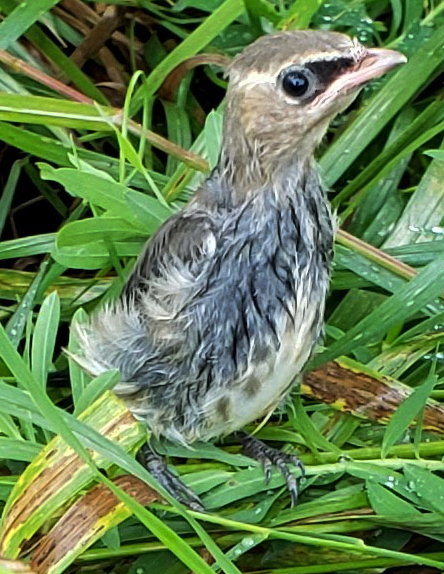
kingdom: Animalia
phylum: Chordata
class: Aves
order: Passeriformes
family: Bombycillidae
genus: Bombycilla
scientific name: Bombycilla cedrorum
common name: Cedar waxwing
